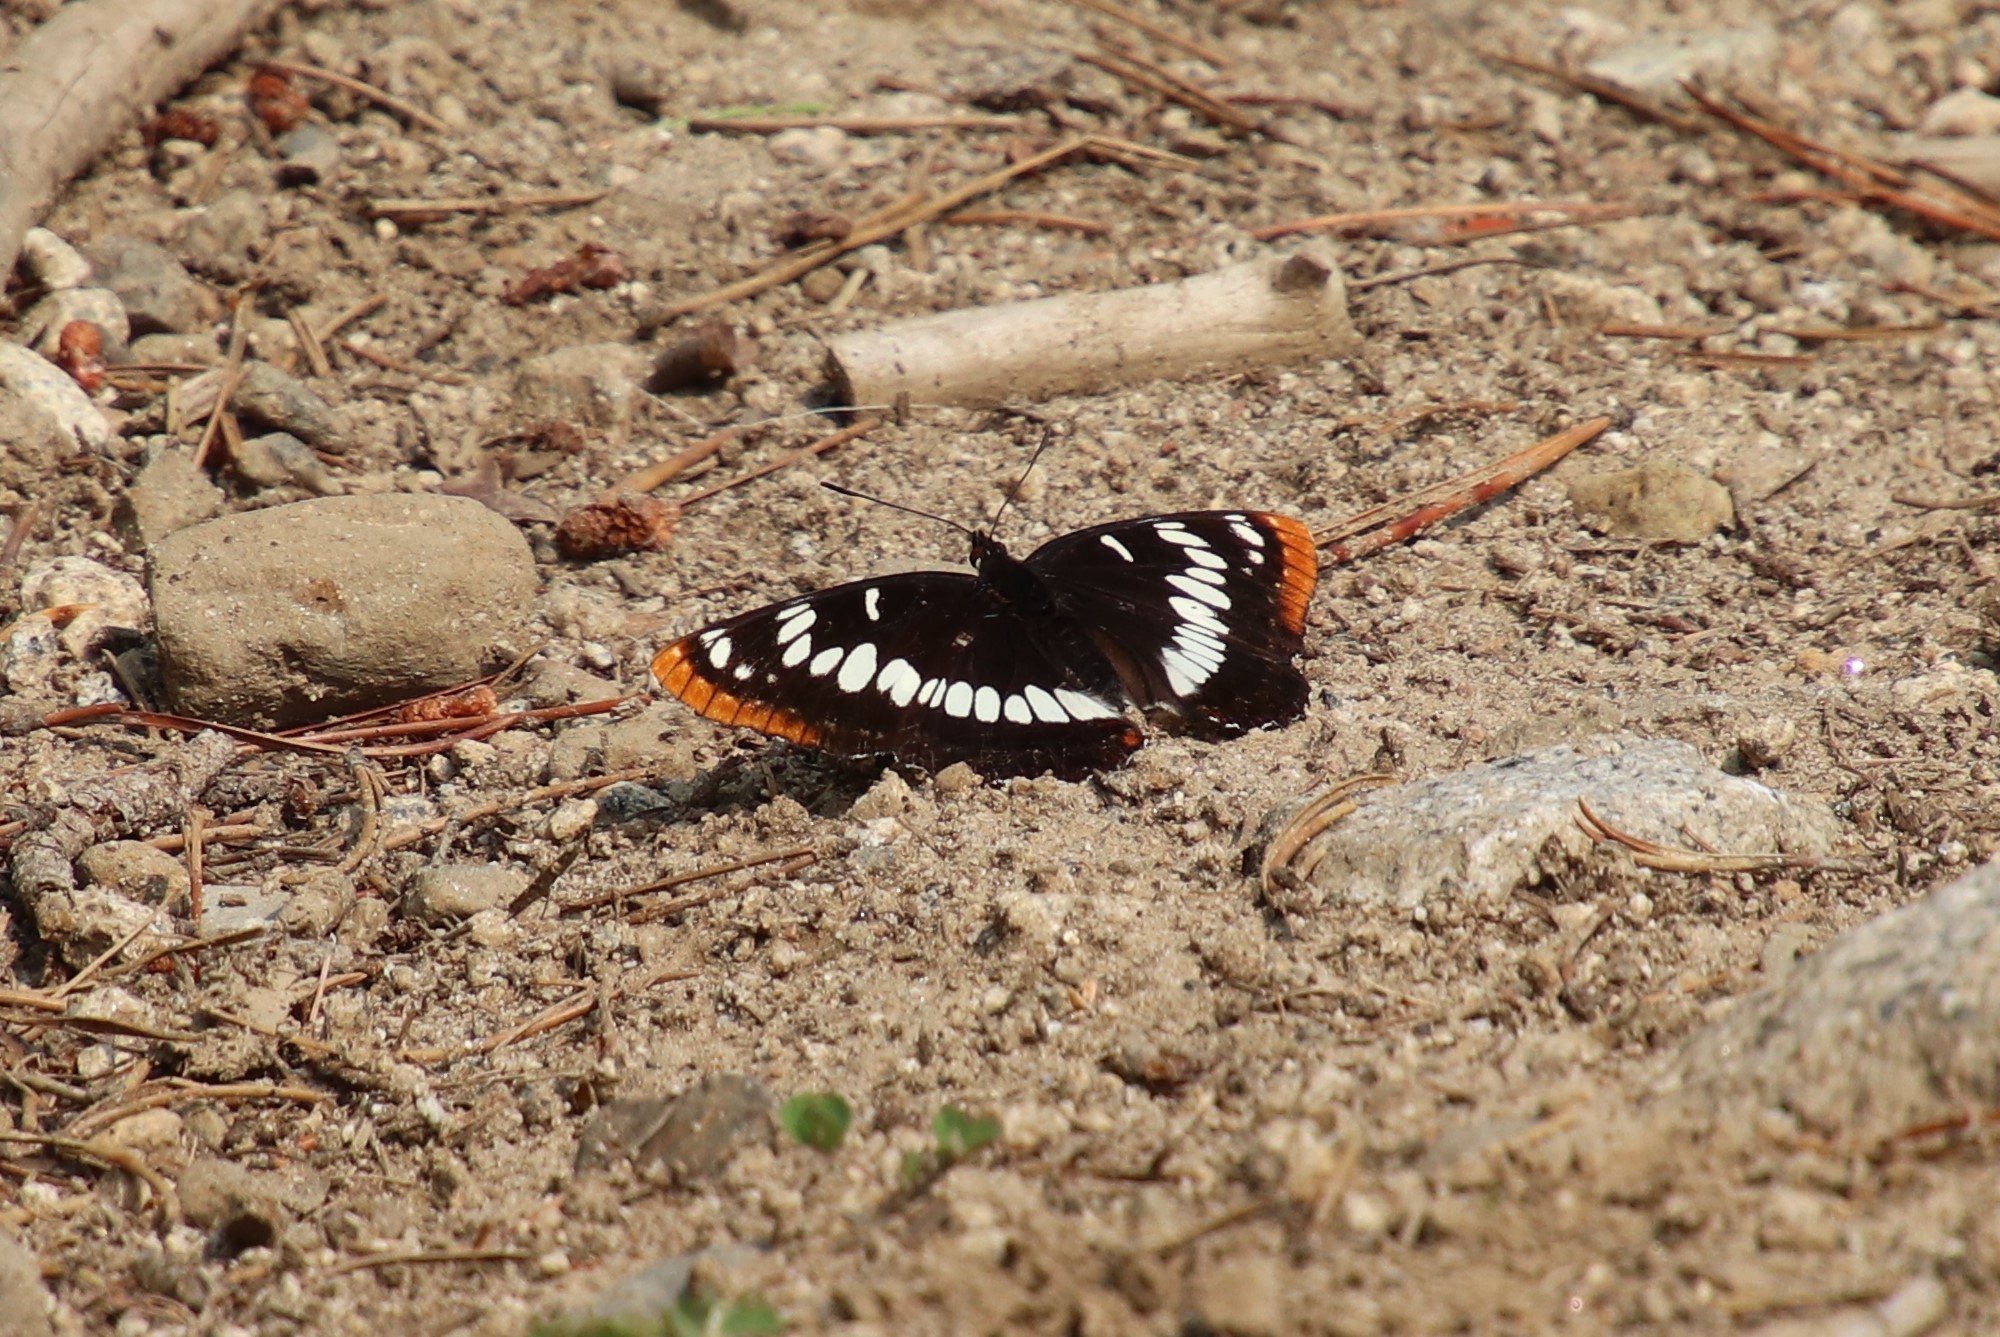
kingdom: Animalia
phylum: Arthropoda
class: Insecta
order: Lepidoptera
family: Nymphalidae
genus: Limenitis
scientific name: Limenitis lorquini
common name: Lorquin's admiral
